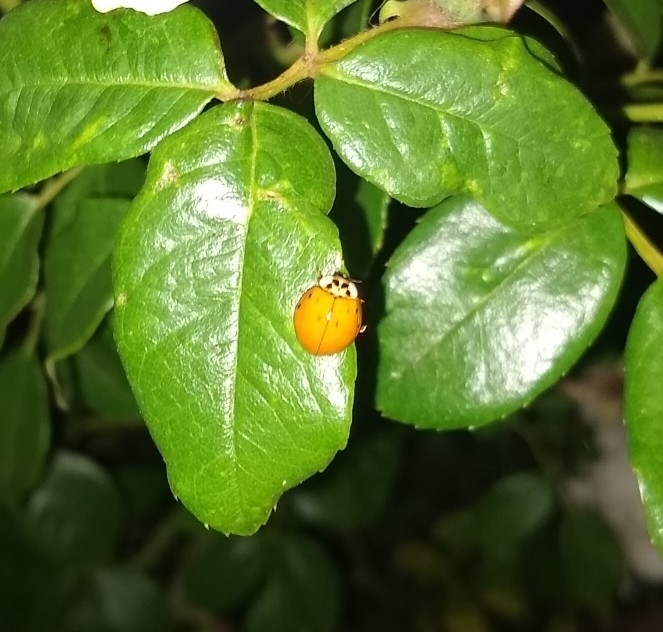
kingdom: Animalia
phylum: Arthropoda
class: Insecta
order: Coleoptera
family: Coccinellidae
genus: Harmonia
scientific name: Harmonia axyridis
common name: Harlequin ladybird
